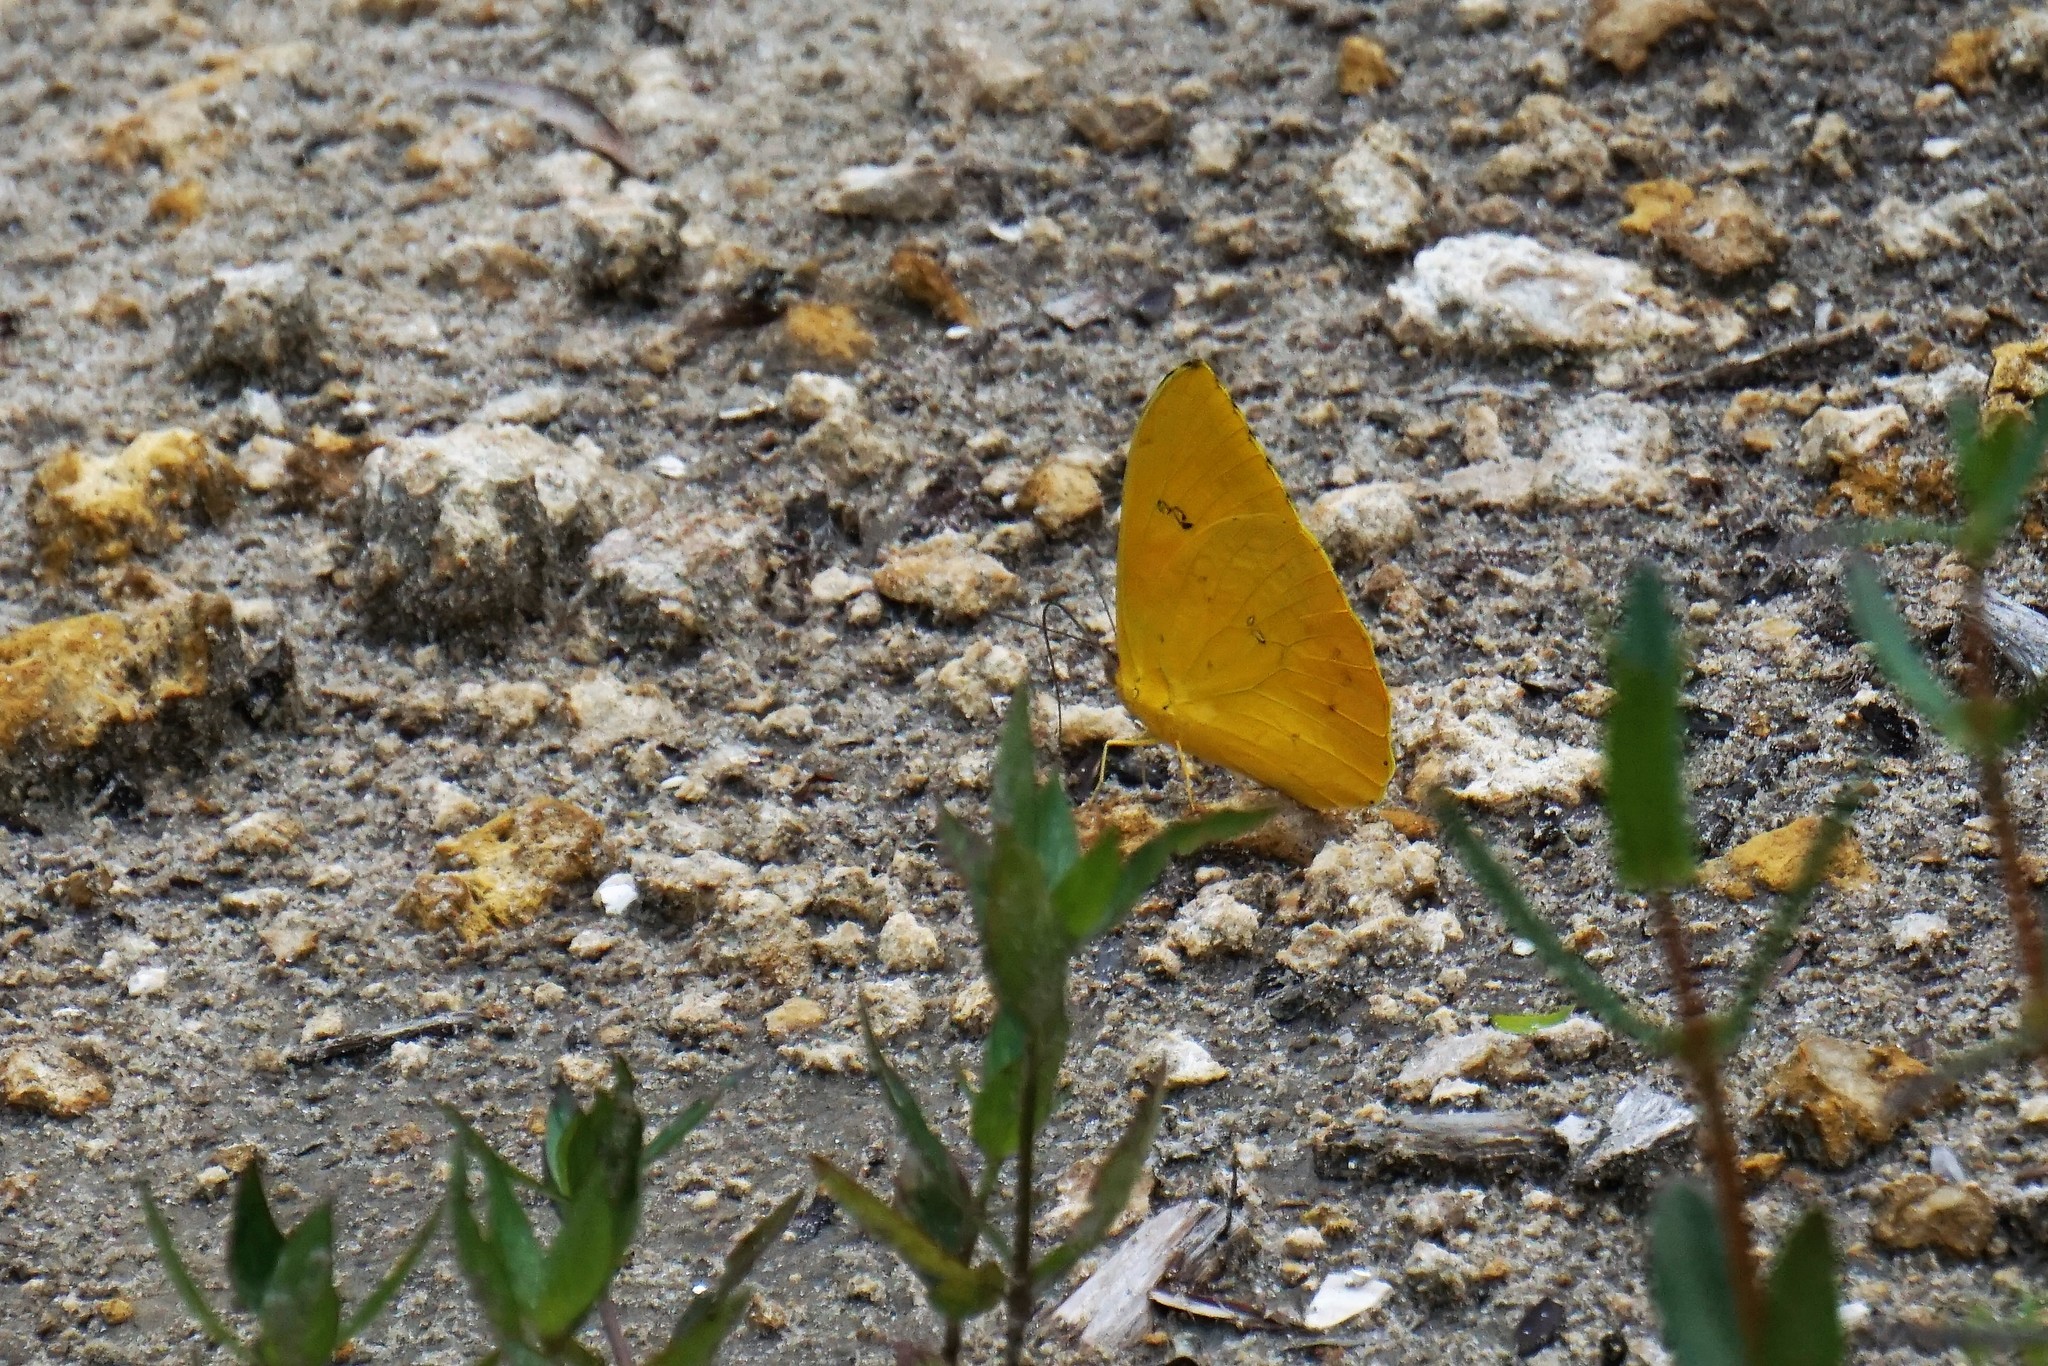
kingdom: Animalia
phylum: Arthropoda
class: Insecta
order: Lepidoptera
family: Pieridae
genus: Phoebis
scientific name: Phoebis philea
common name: Orange-barred giant sulphur
